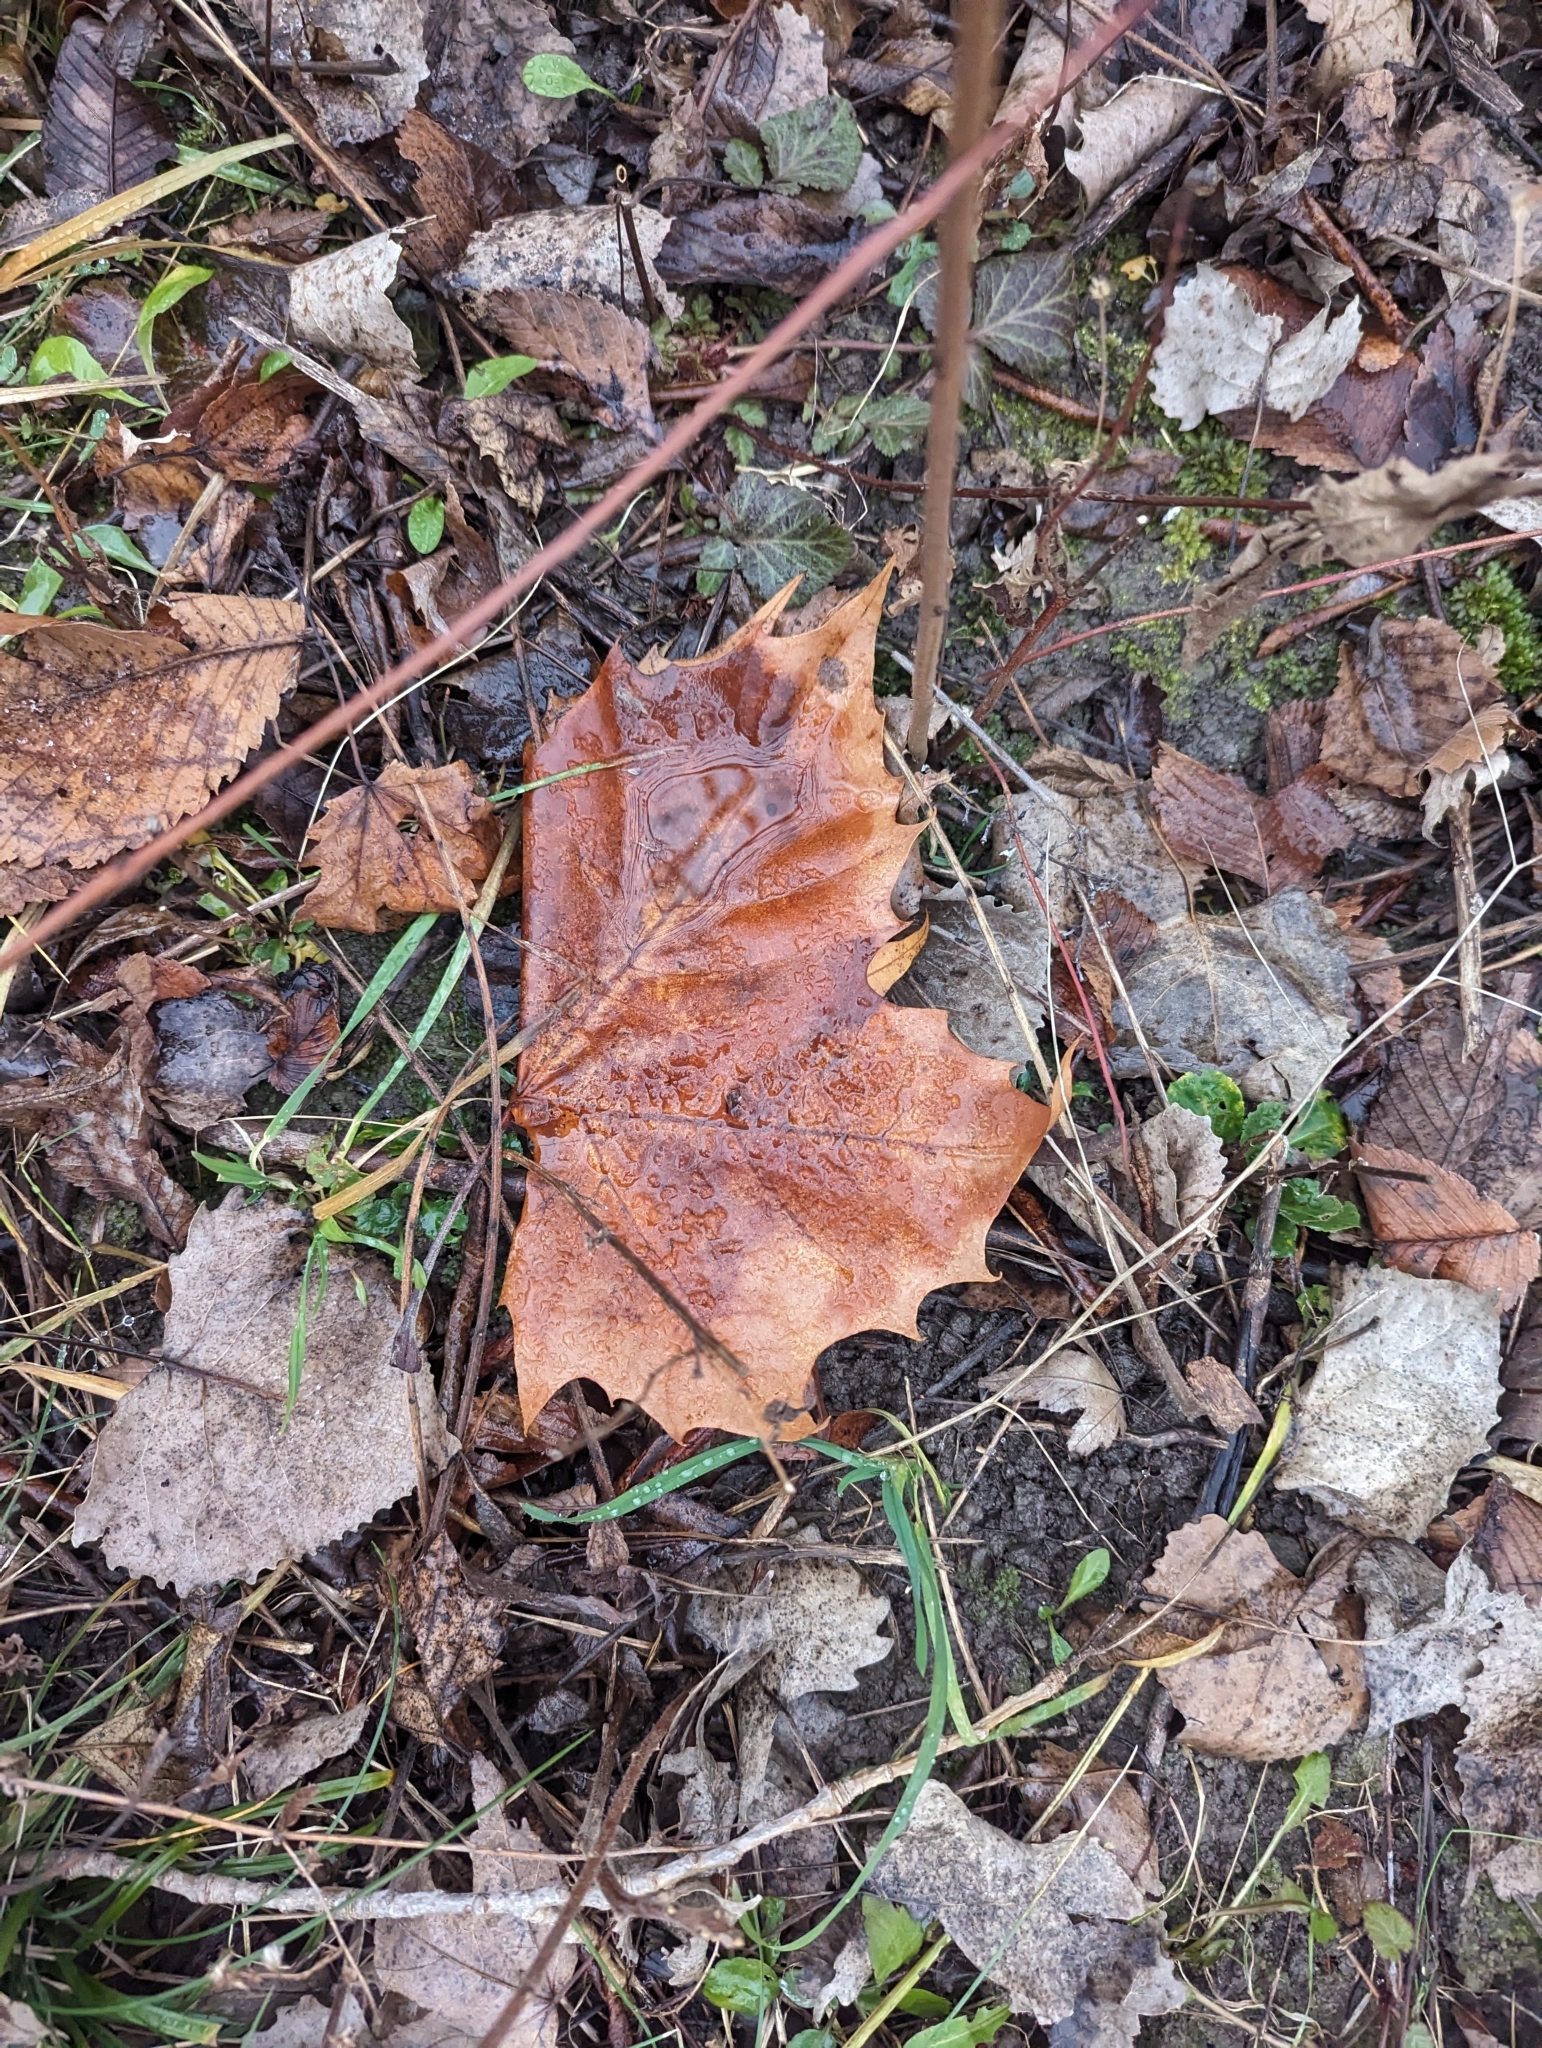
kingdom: Plantae
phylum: Tracheophyta
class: Magnoliopsida
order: Proteales
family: Platanaceae
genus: Platanus
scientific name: Platanus occidentalis
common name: American sycamore
